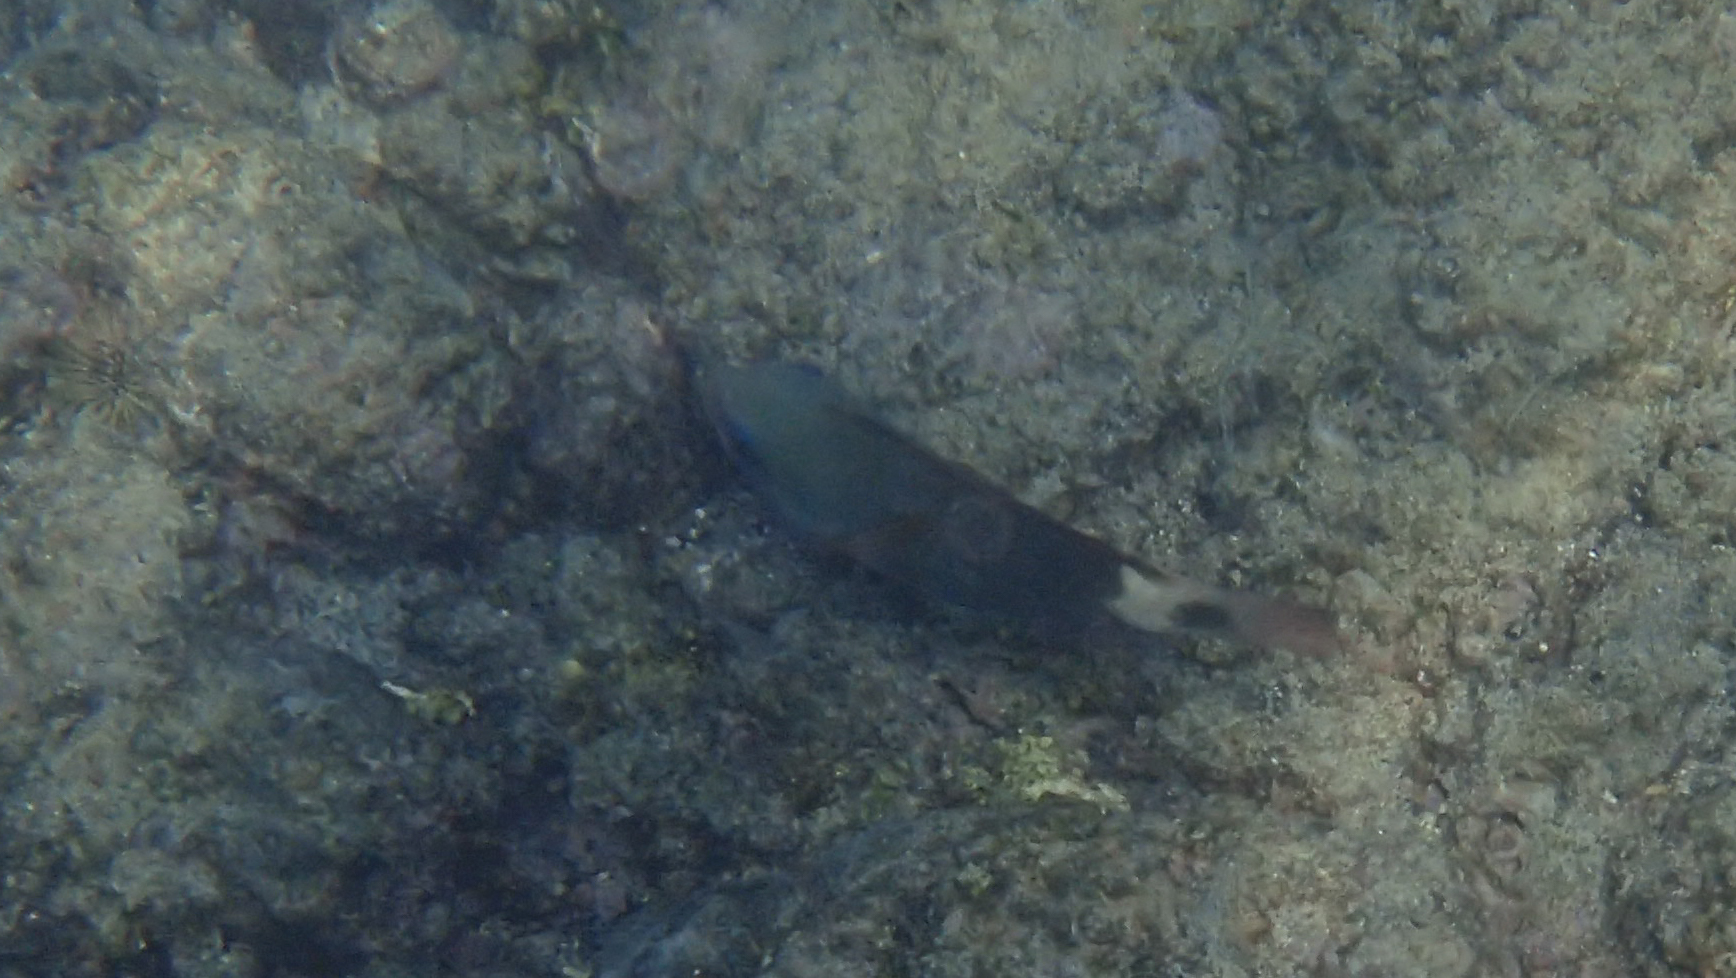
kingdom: Animalia
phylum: Chordata
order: Perciformes
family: Scaridae
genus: Chlorurus
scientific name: Chlorurus spilurus
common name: Bullethead parrotfish
